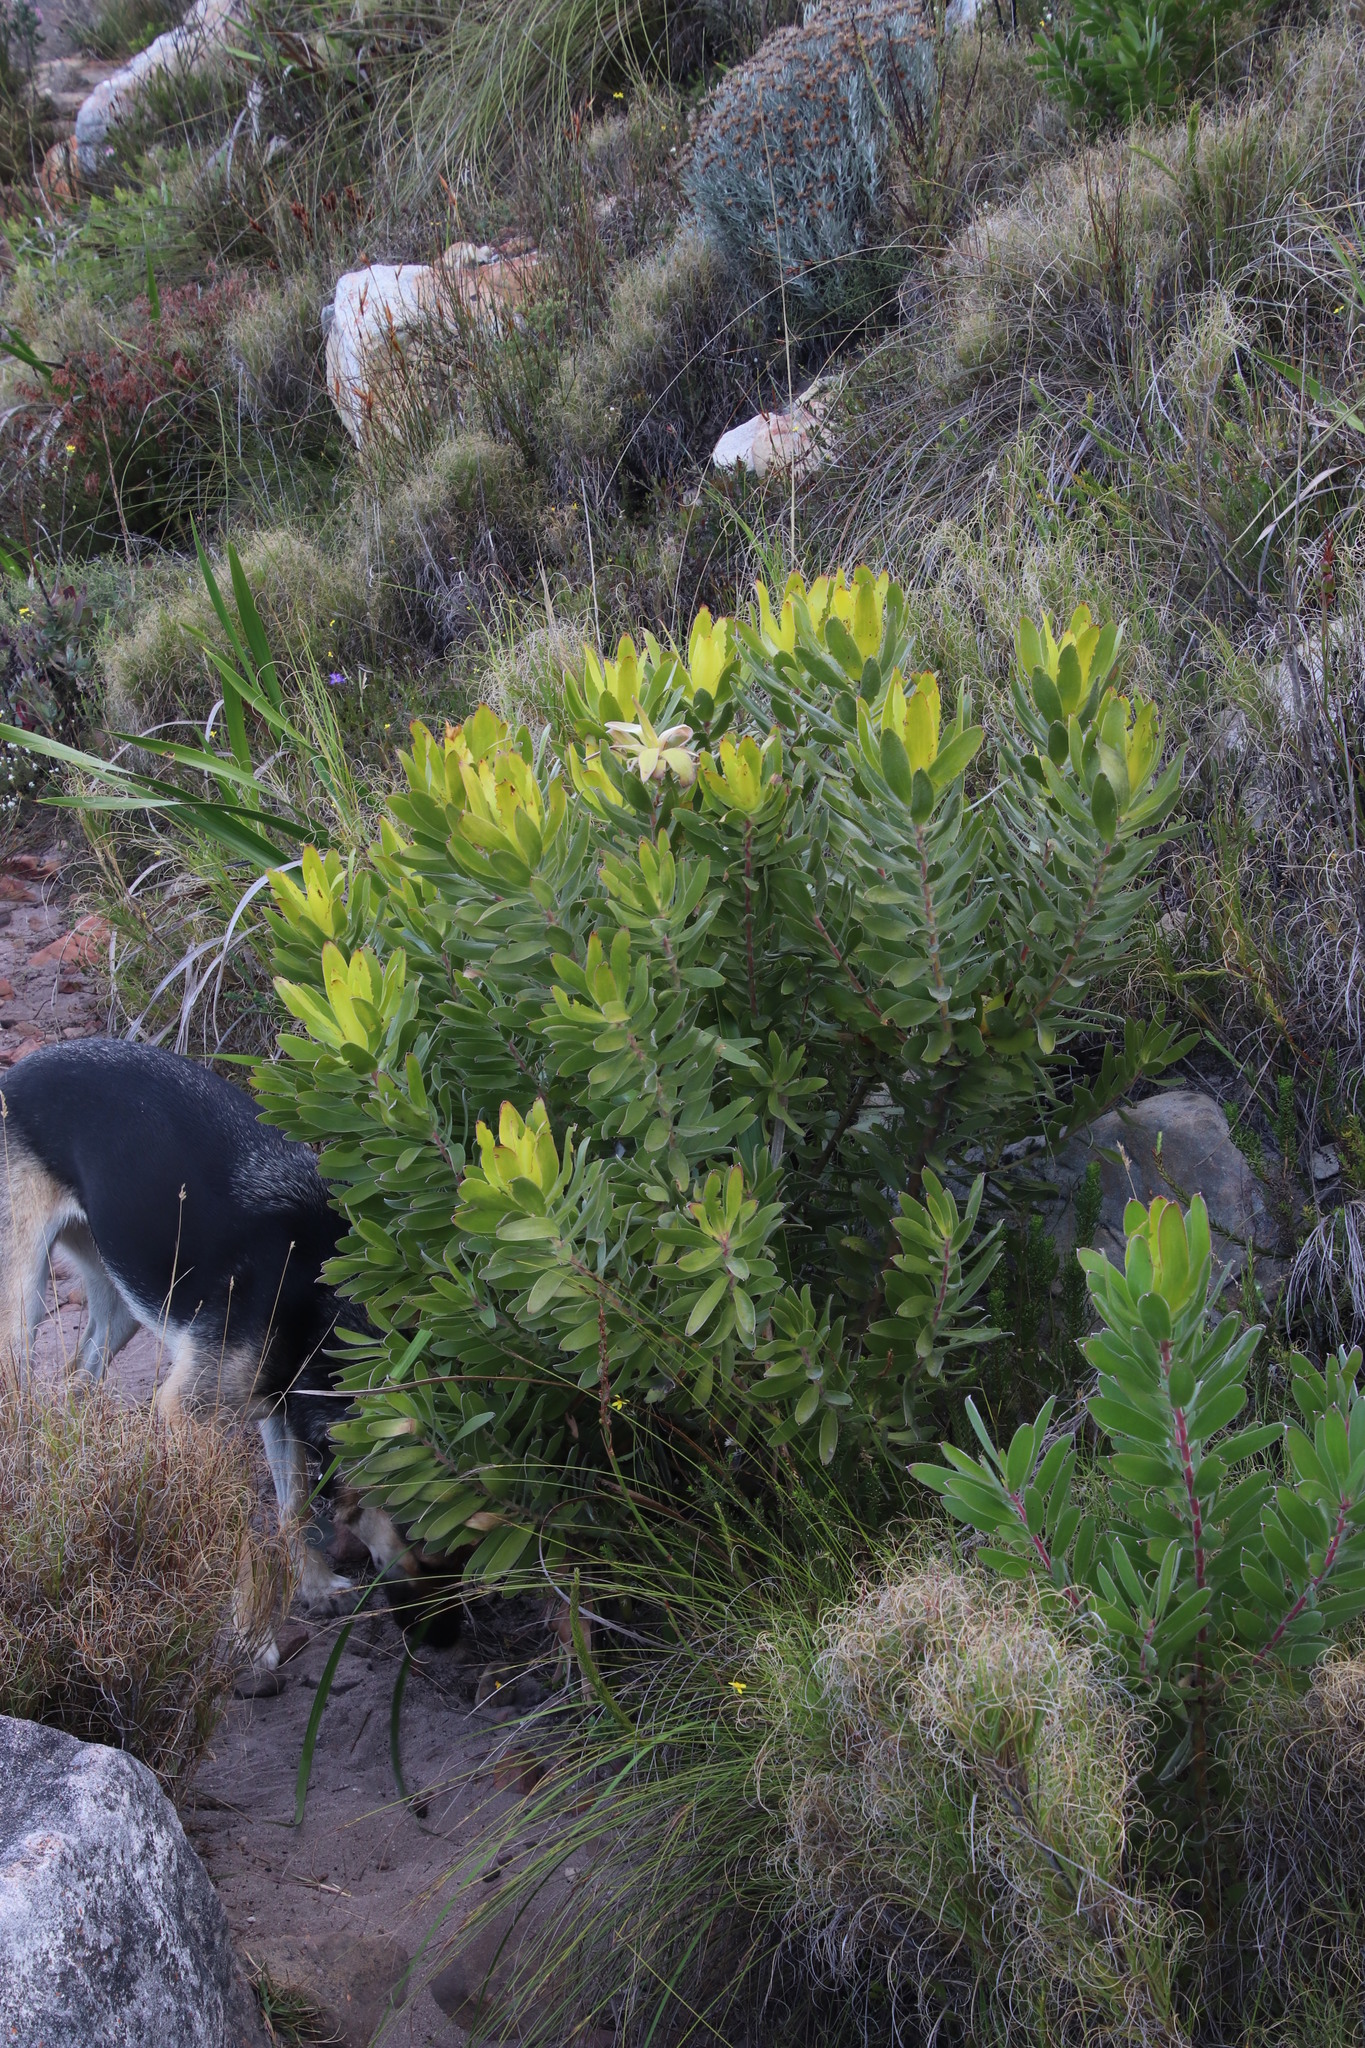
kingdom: Plantae
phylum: Tracheophyta
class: Magnoliopsida
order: Proteales
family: Proteaceae
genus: Leucadendron
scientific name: Leucadendron laureolum
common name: Golden sunshinebush
